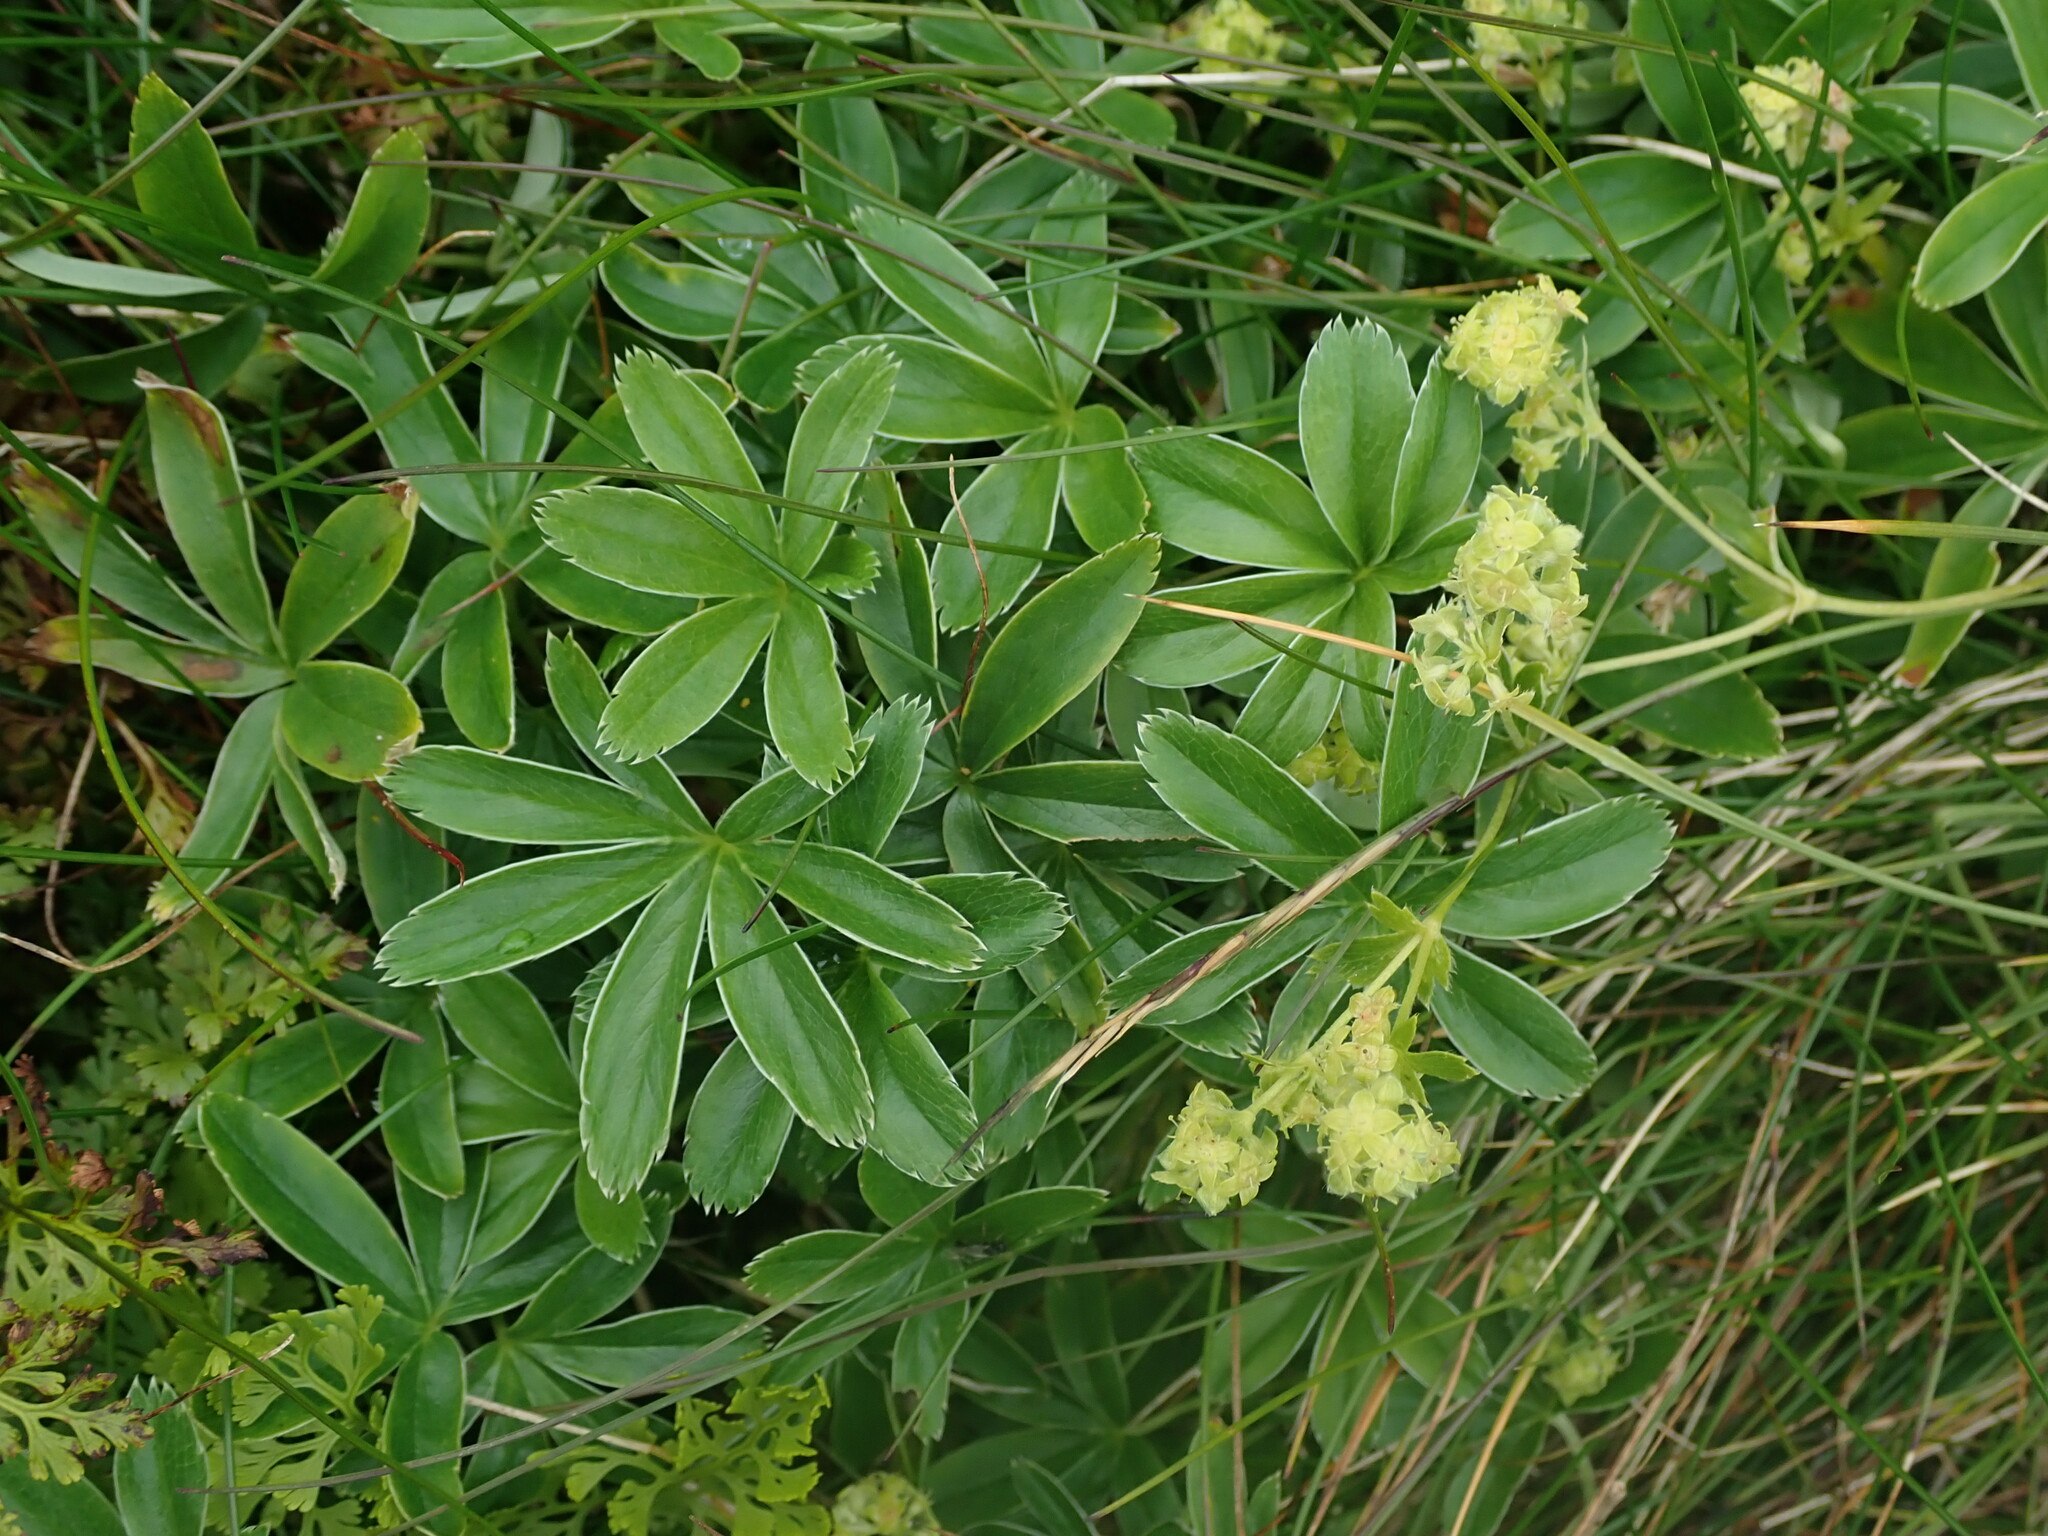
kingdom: Plantae
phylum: Tracheophyta
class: Magnoliopsida
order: Rosales
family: Rosaceae
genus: Alchemilla
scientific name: Alchemilla alpina
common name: Alpine lady's-mantle
